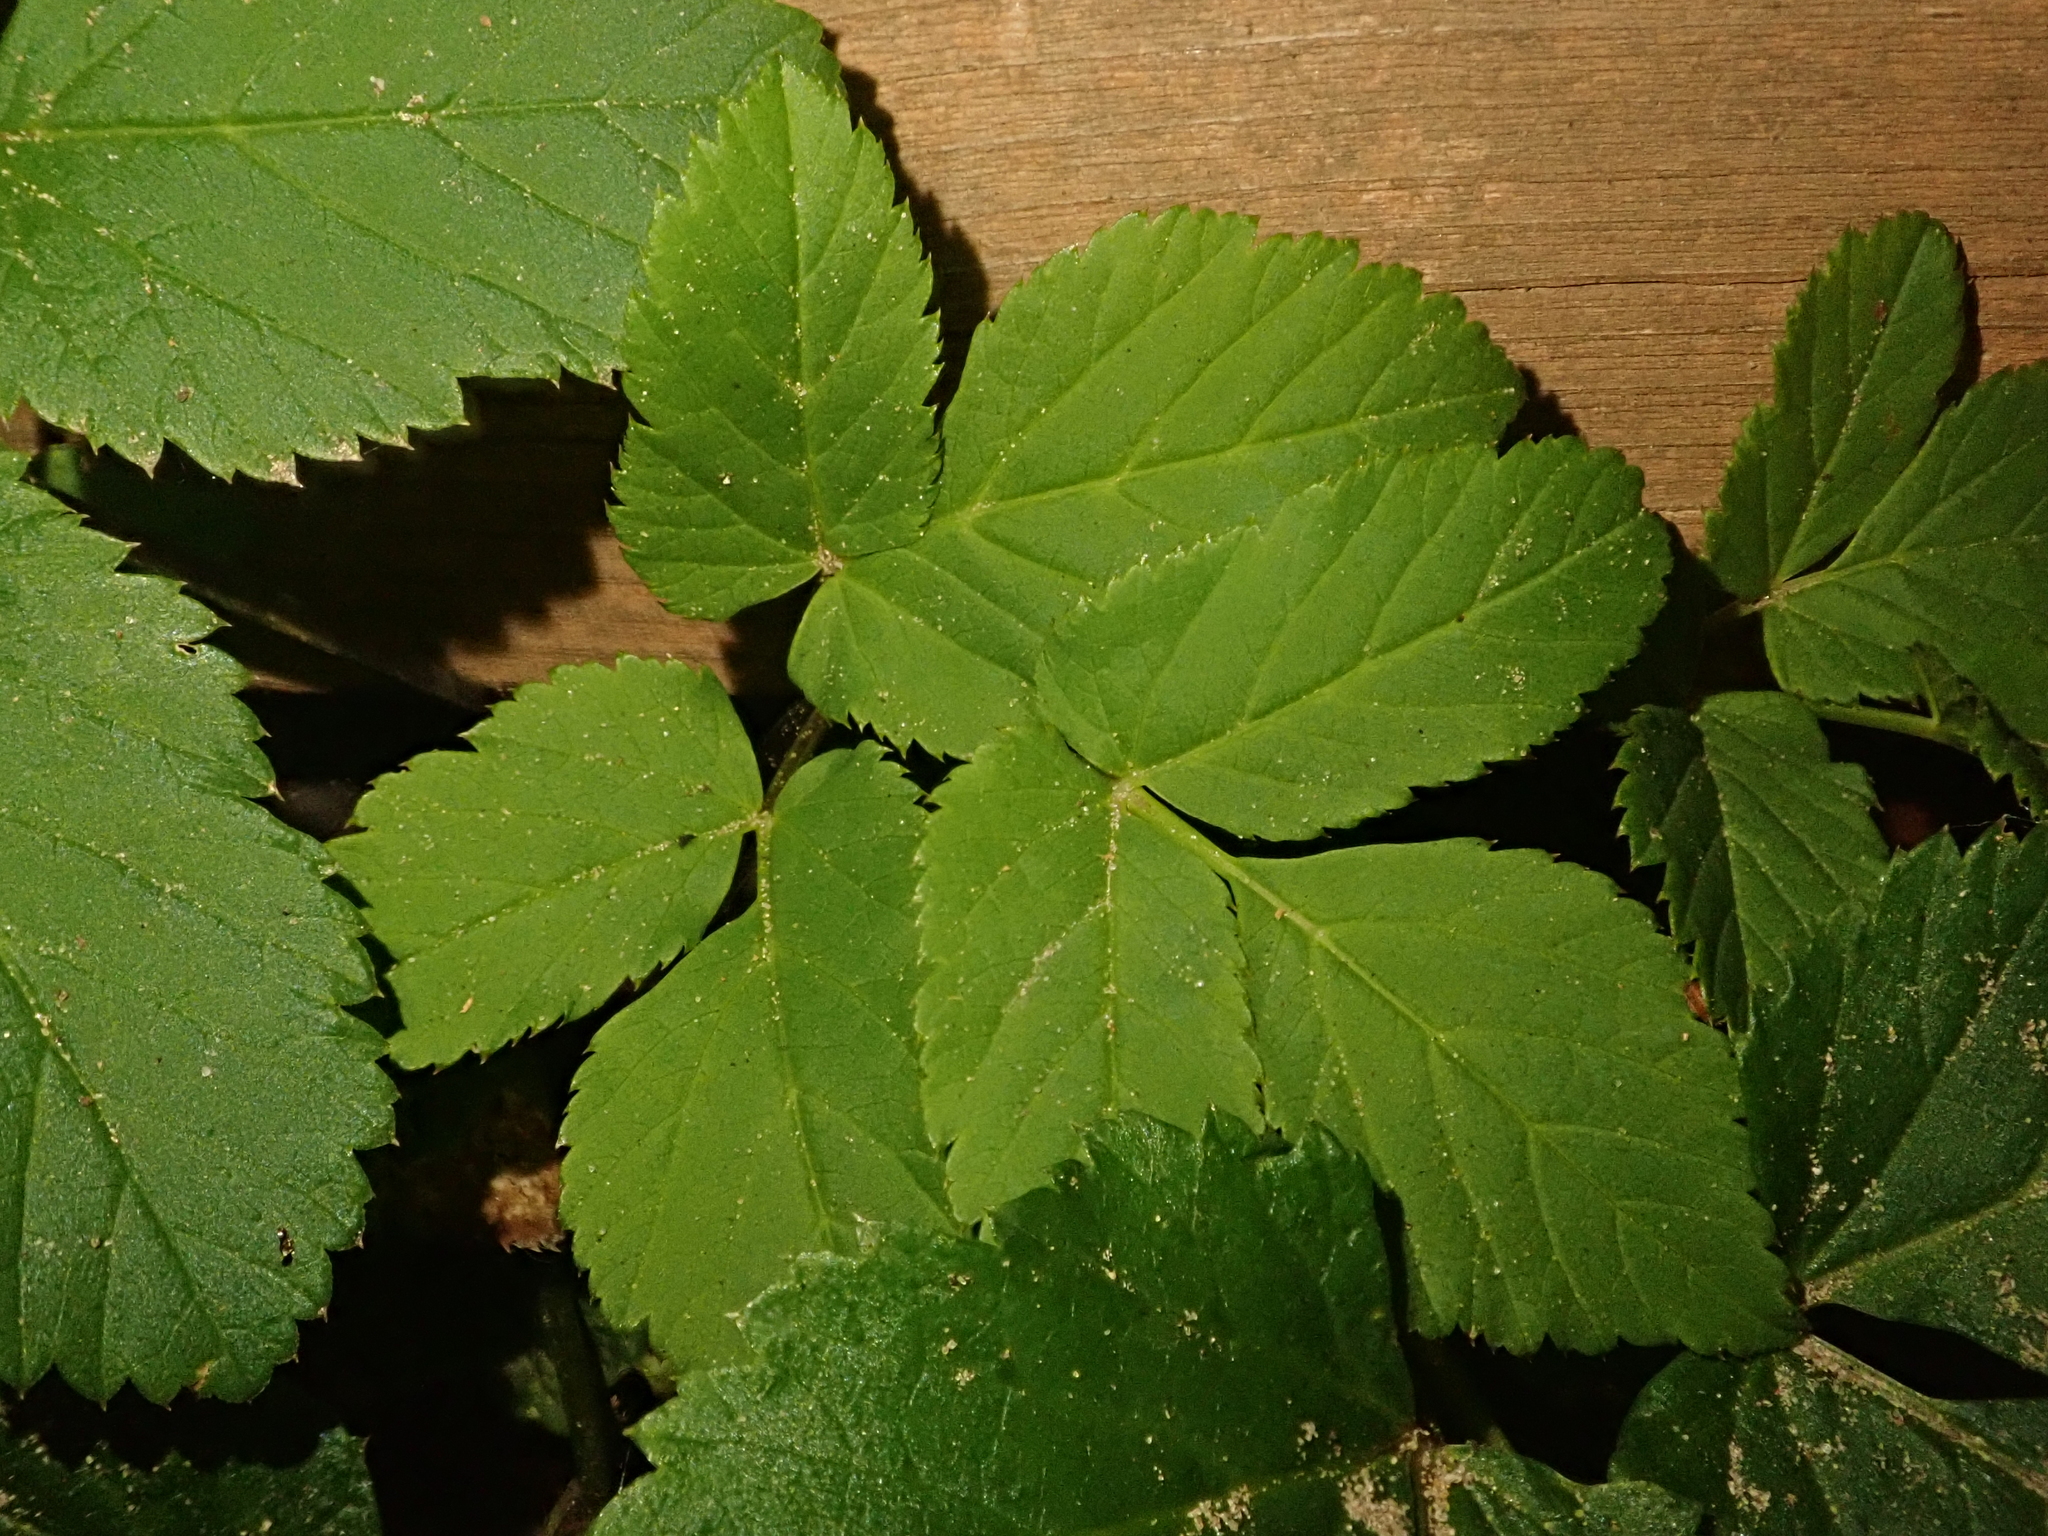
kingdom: Plantae
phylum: Tracheophyta
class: Magnoliopsida
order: Apiales
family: Apiaceae
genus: Aegopodium
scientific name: Aegopodium podagraria
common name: Ground-elder
